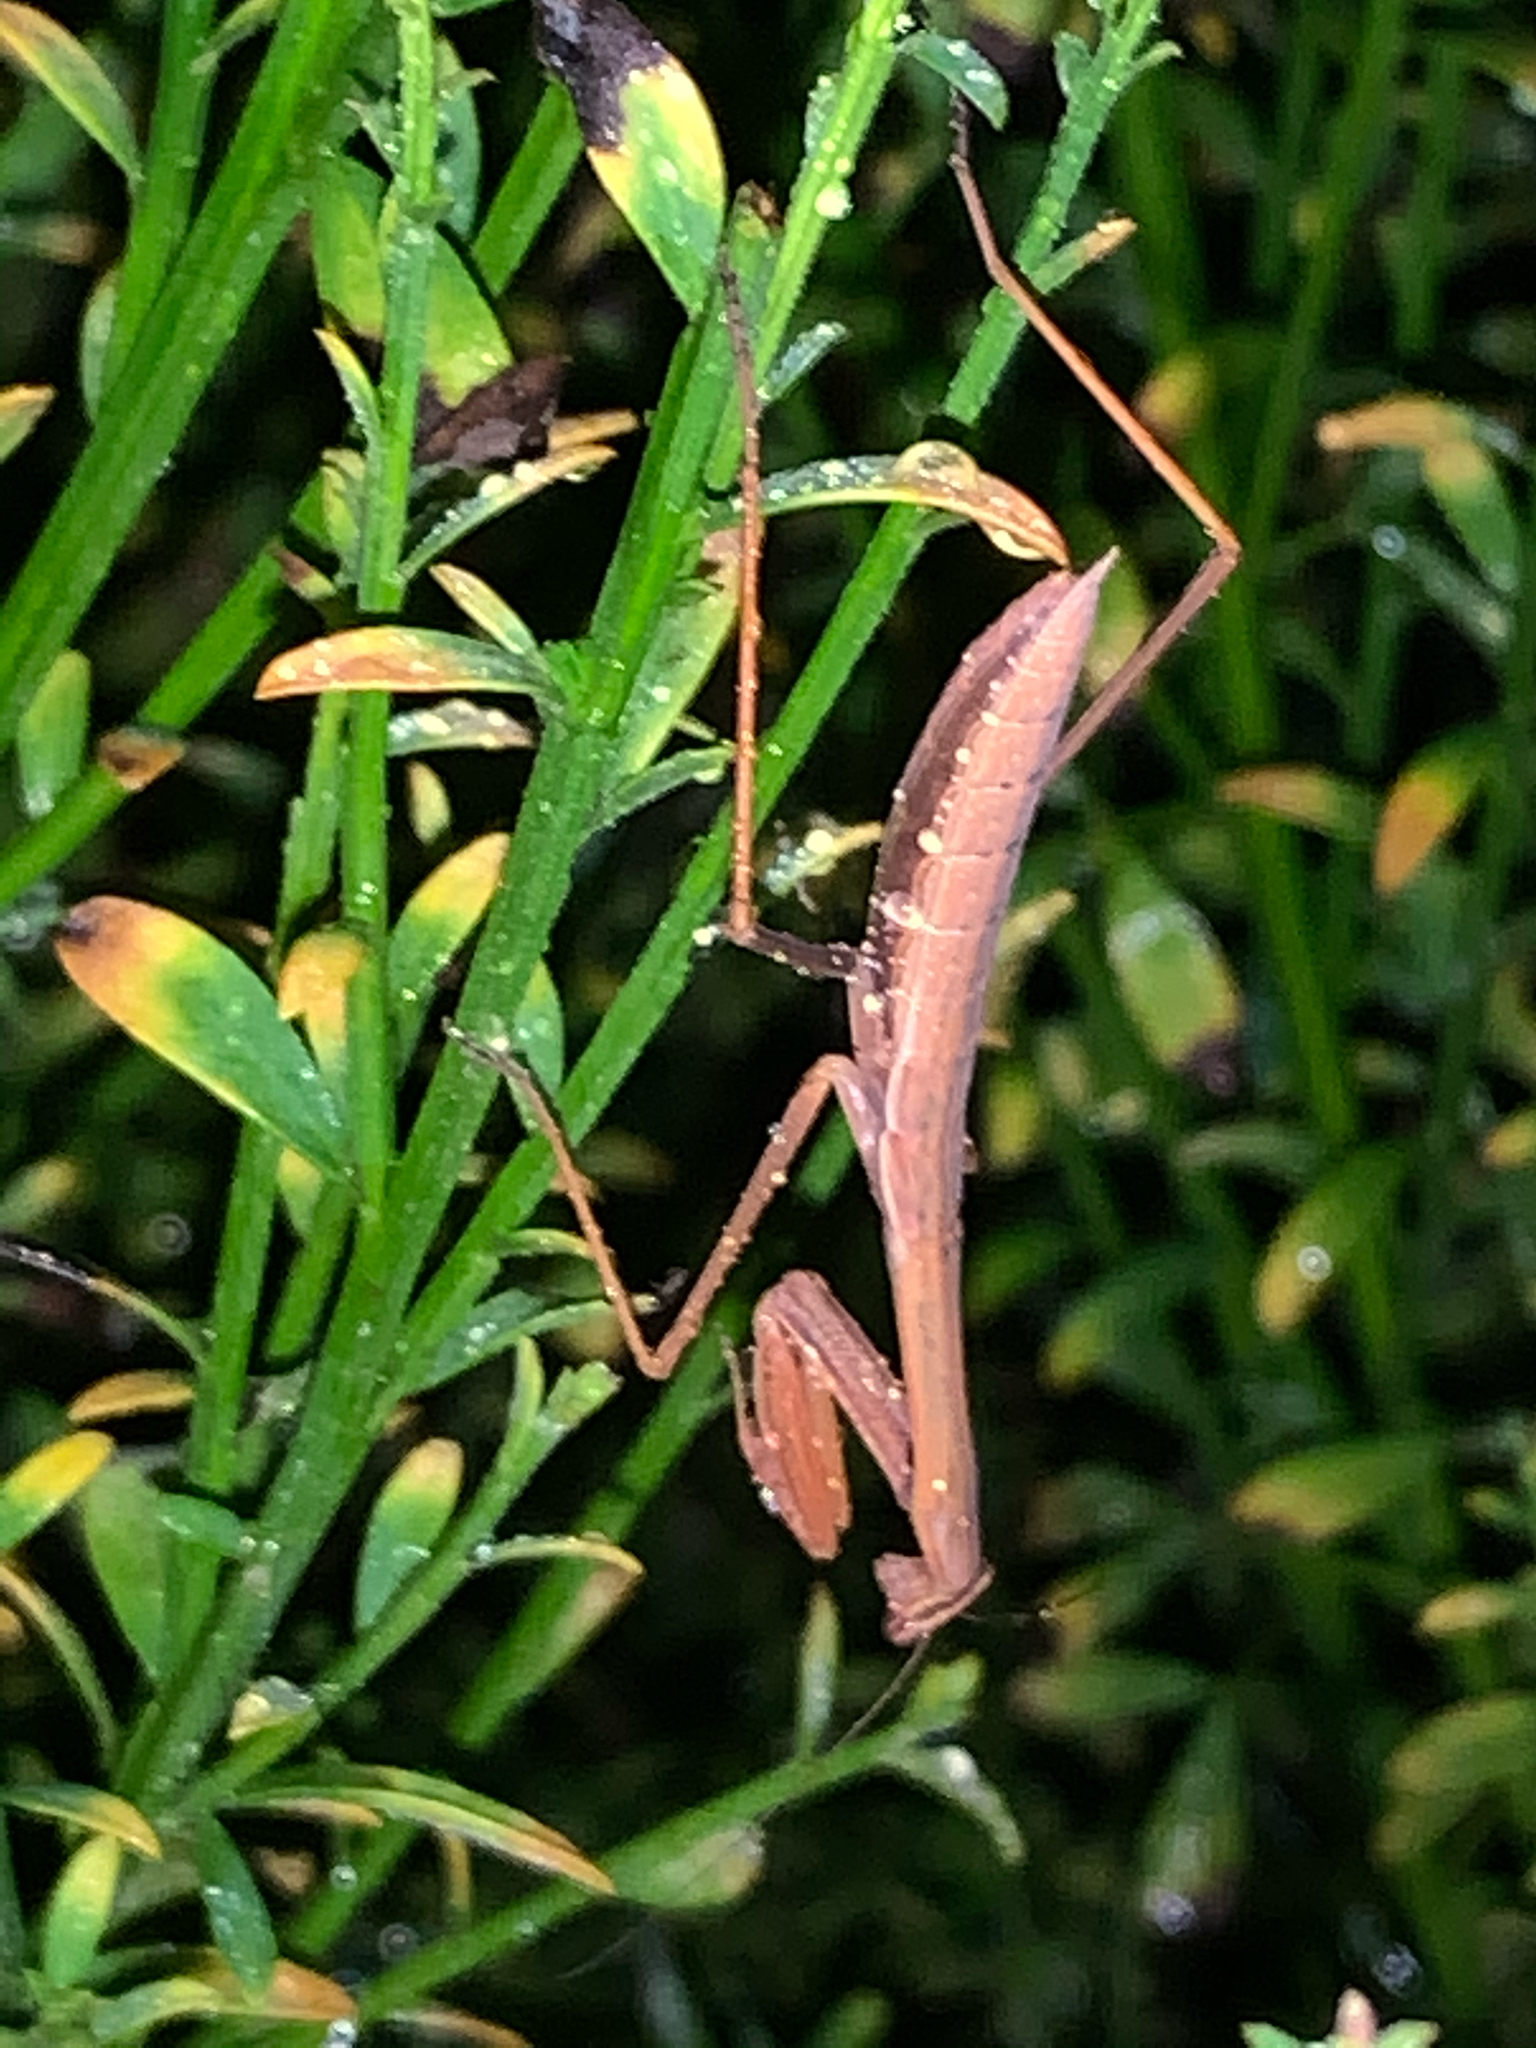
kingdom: Animalia
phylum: Arthropoda
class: Insecta
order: Mantodea
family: Mantidae
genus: Tenodera
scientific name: Tenodera sinensis
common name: Chinese mantis
